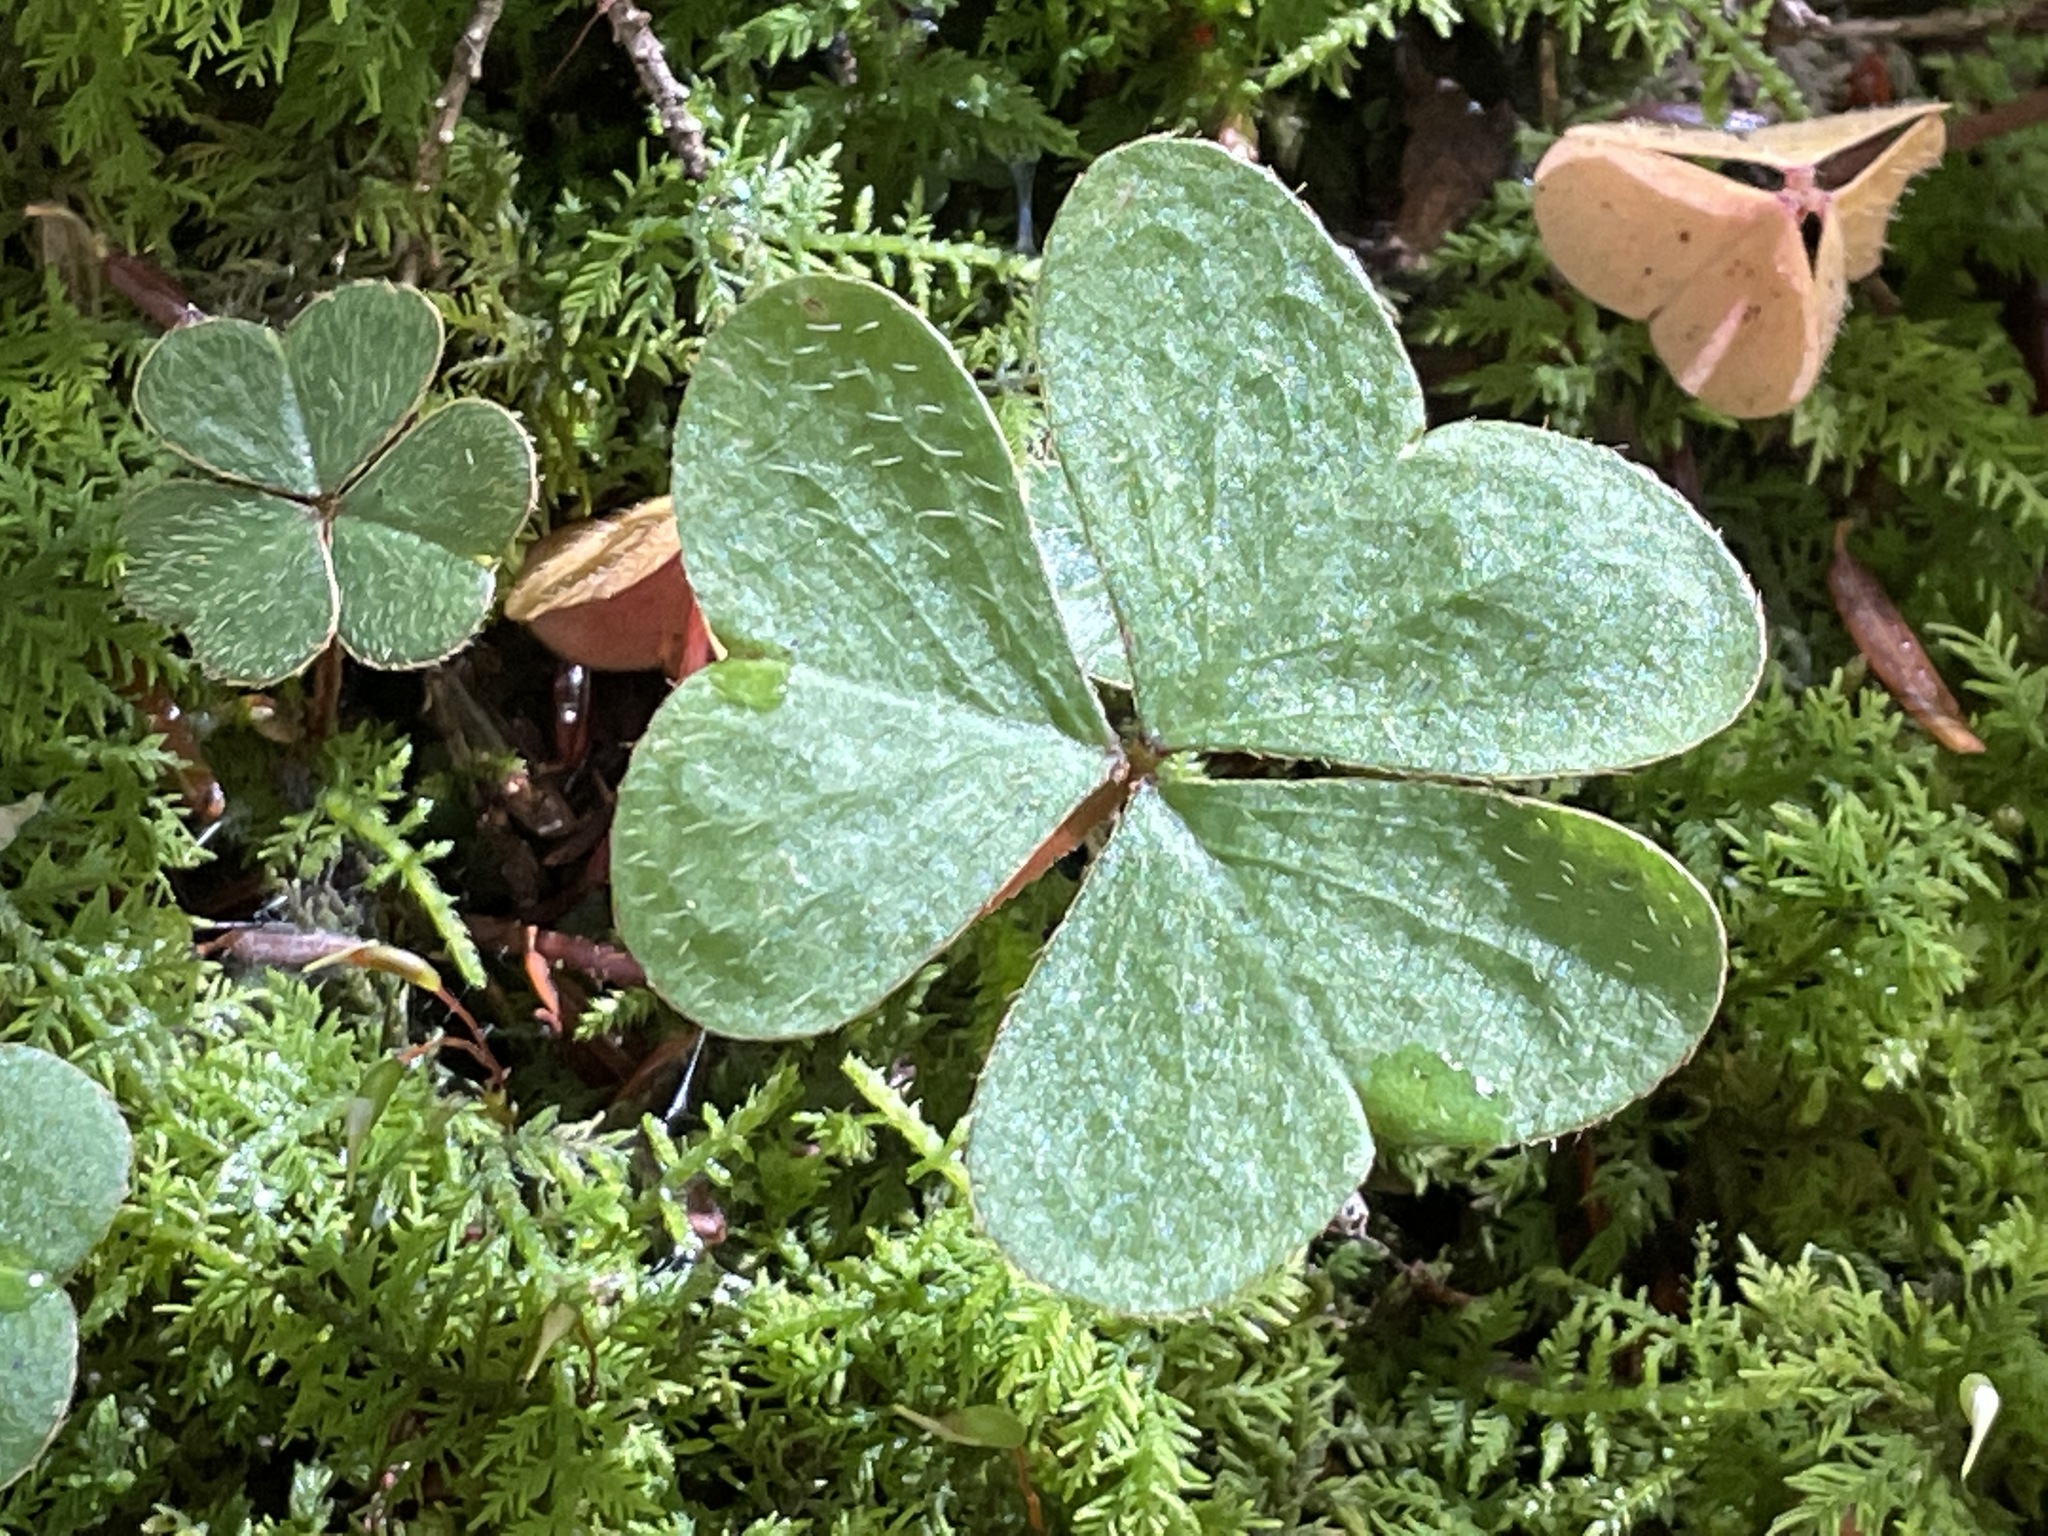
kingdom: Plantae
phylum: Tracheophyta
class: Magnoliopsida
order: Oxalidales
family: Oxalidaceae
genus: Oxalis
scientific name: Oxalis montana
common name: American wood-sorrel
